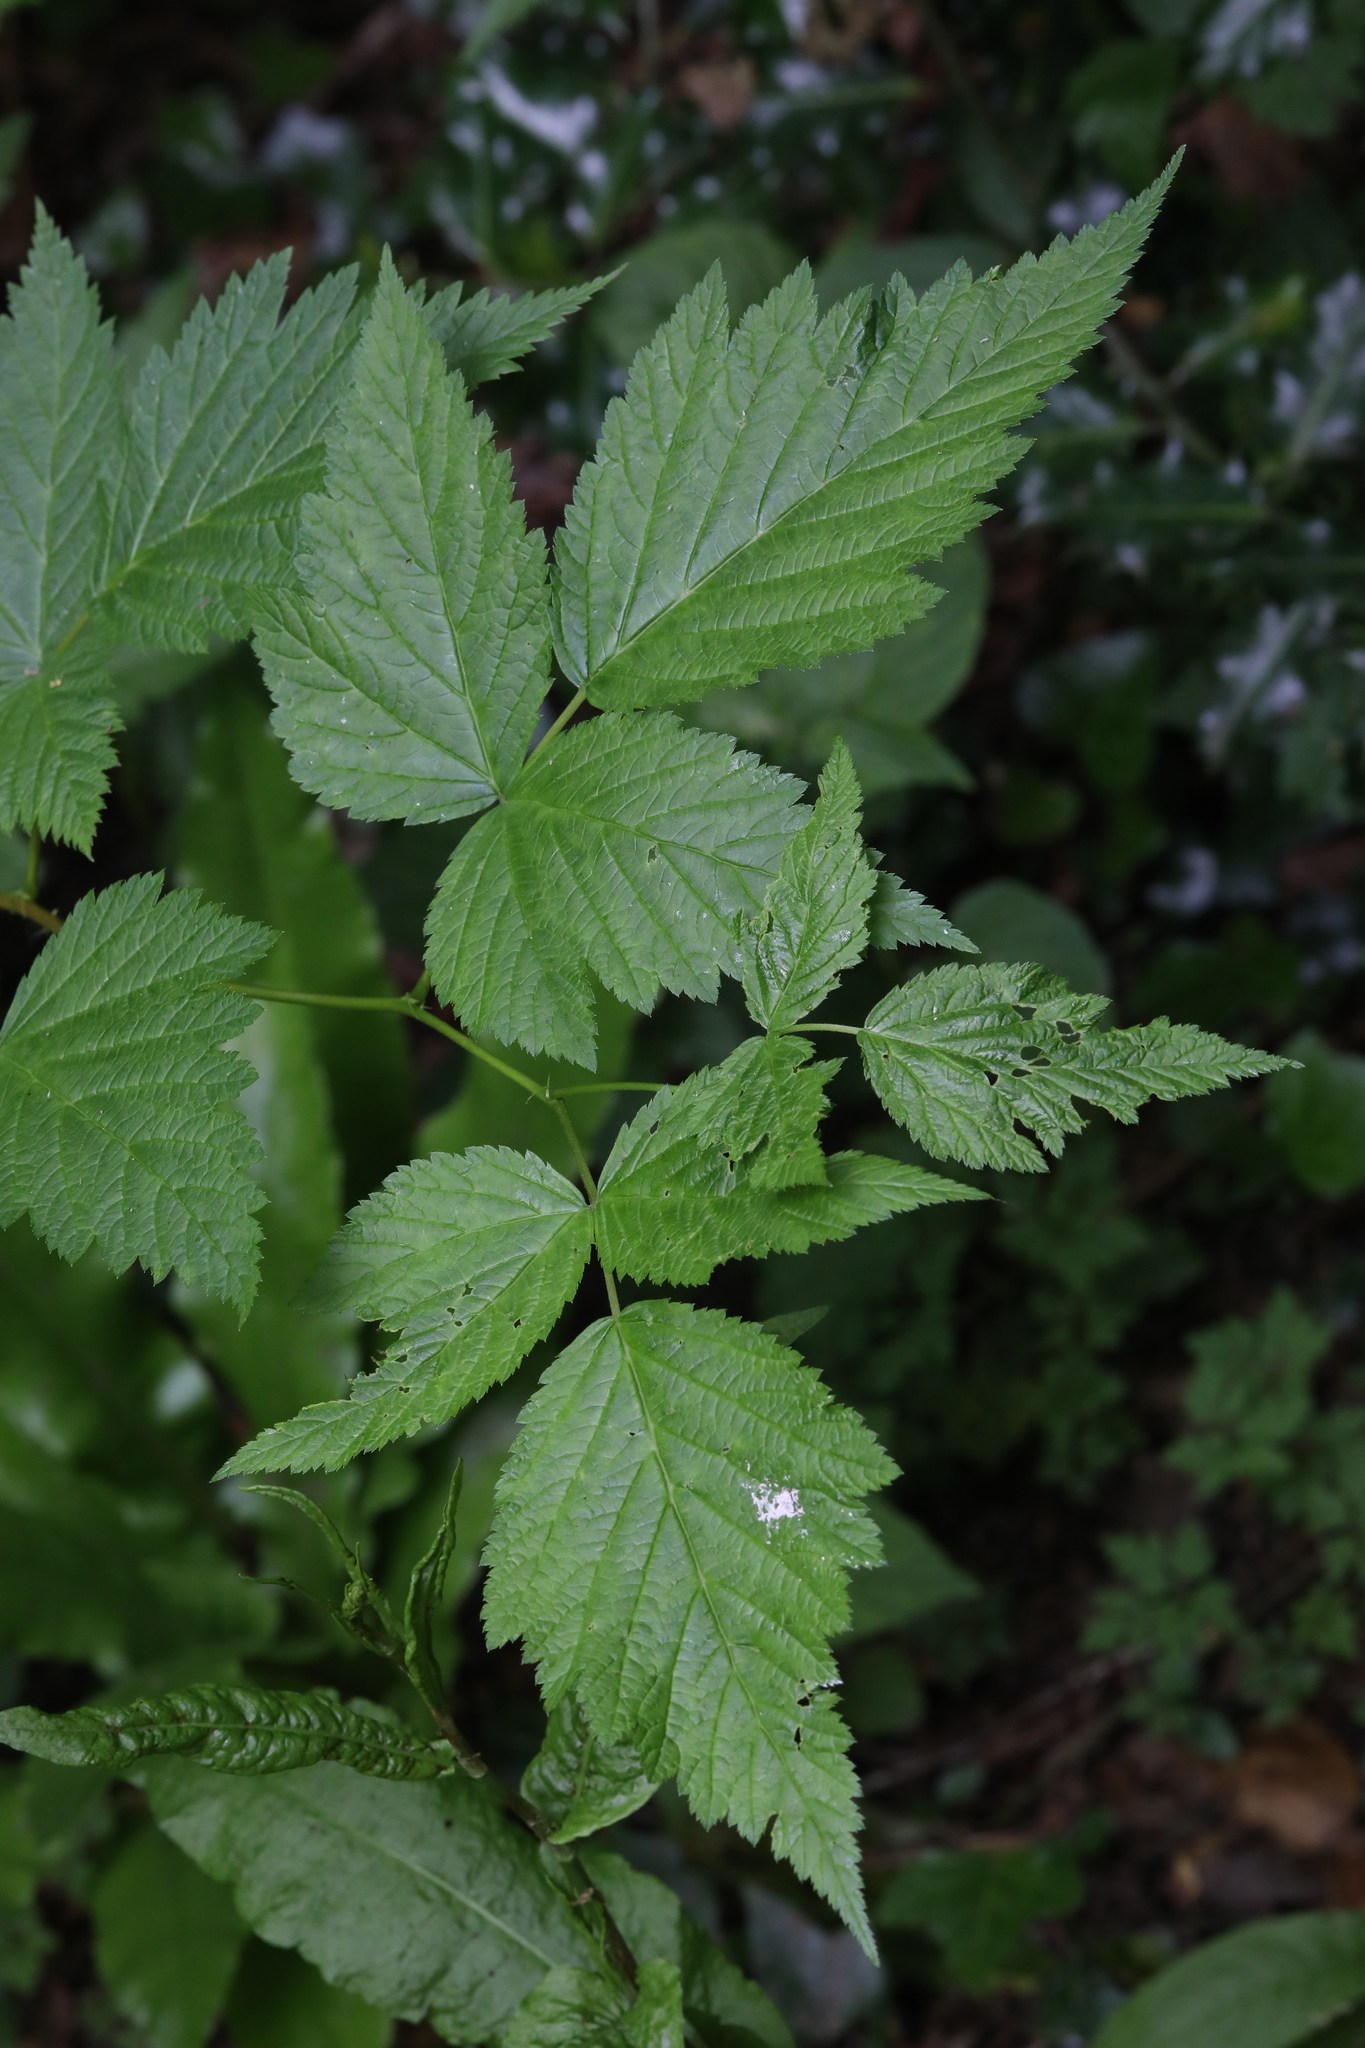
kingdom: Plantae
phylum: Tracheophyta
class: Magnoliopsida
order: Rosales
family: Rosaceae
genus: Rubus
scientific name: Rubus spectabilis
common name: Salmonberry
